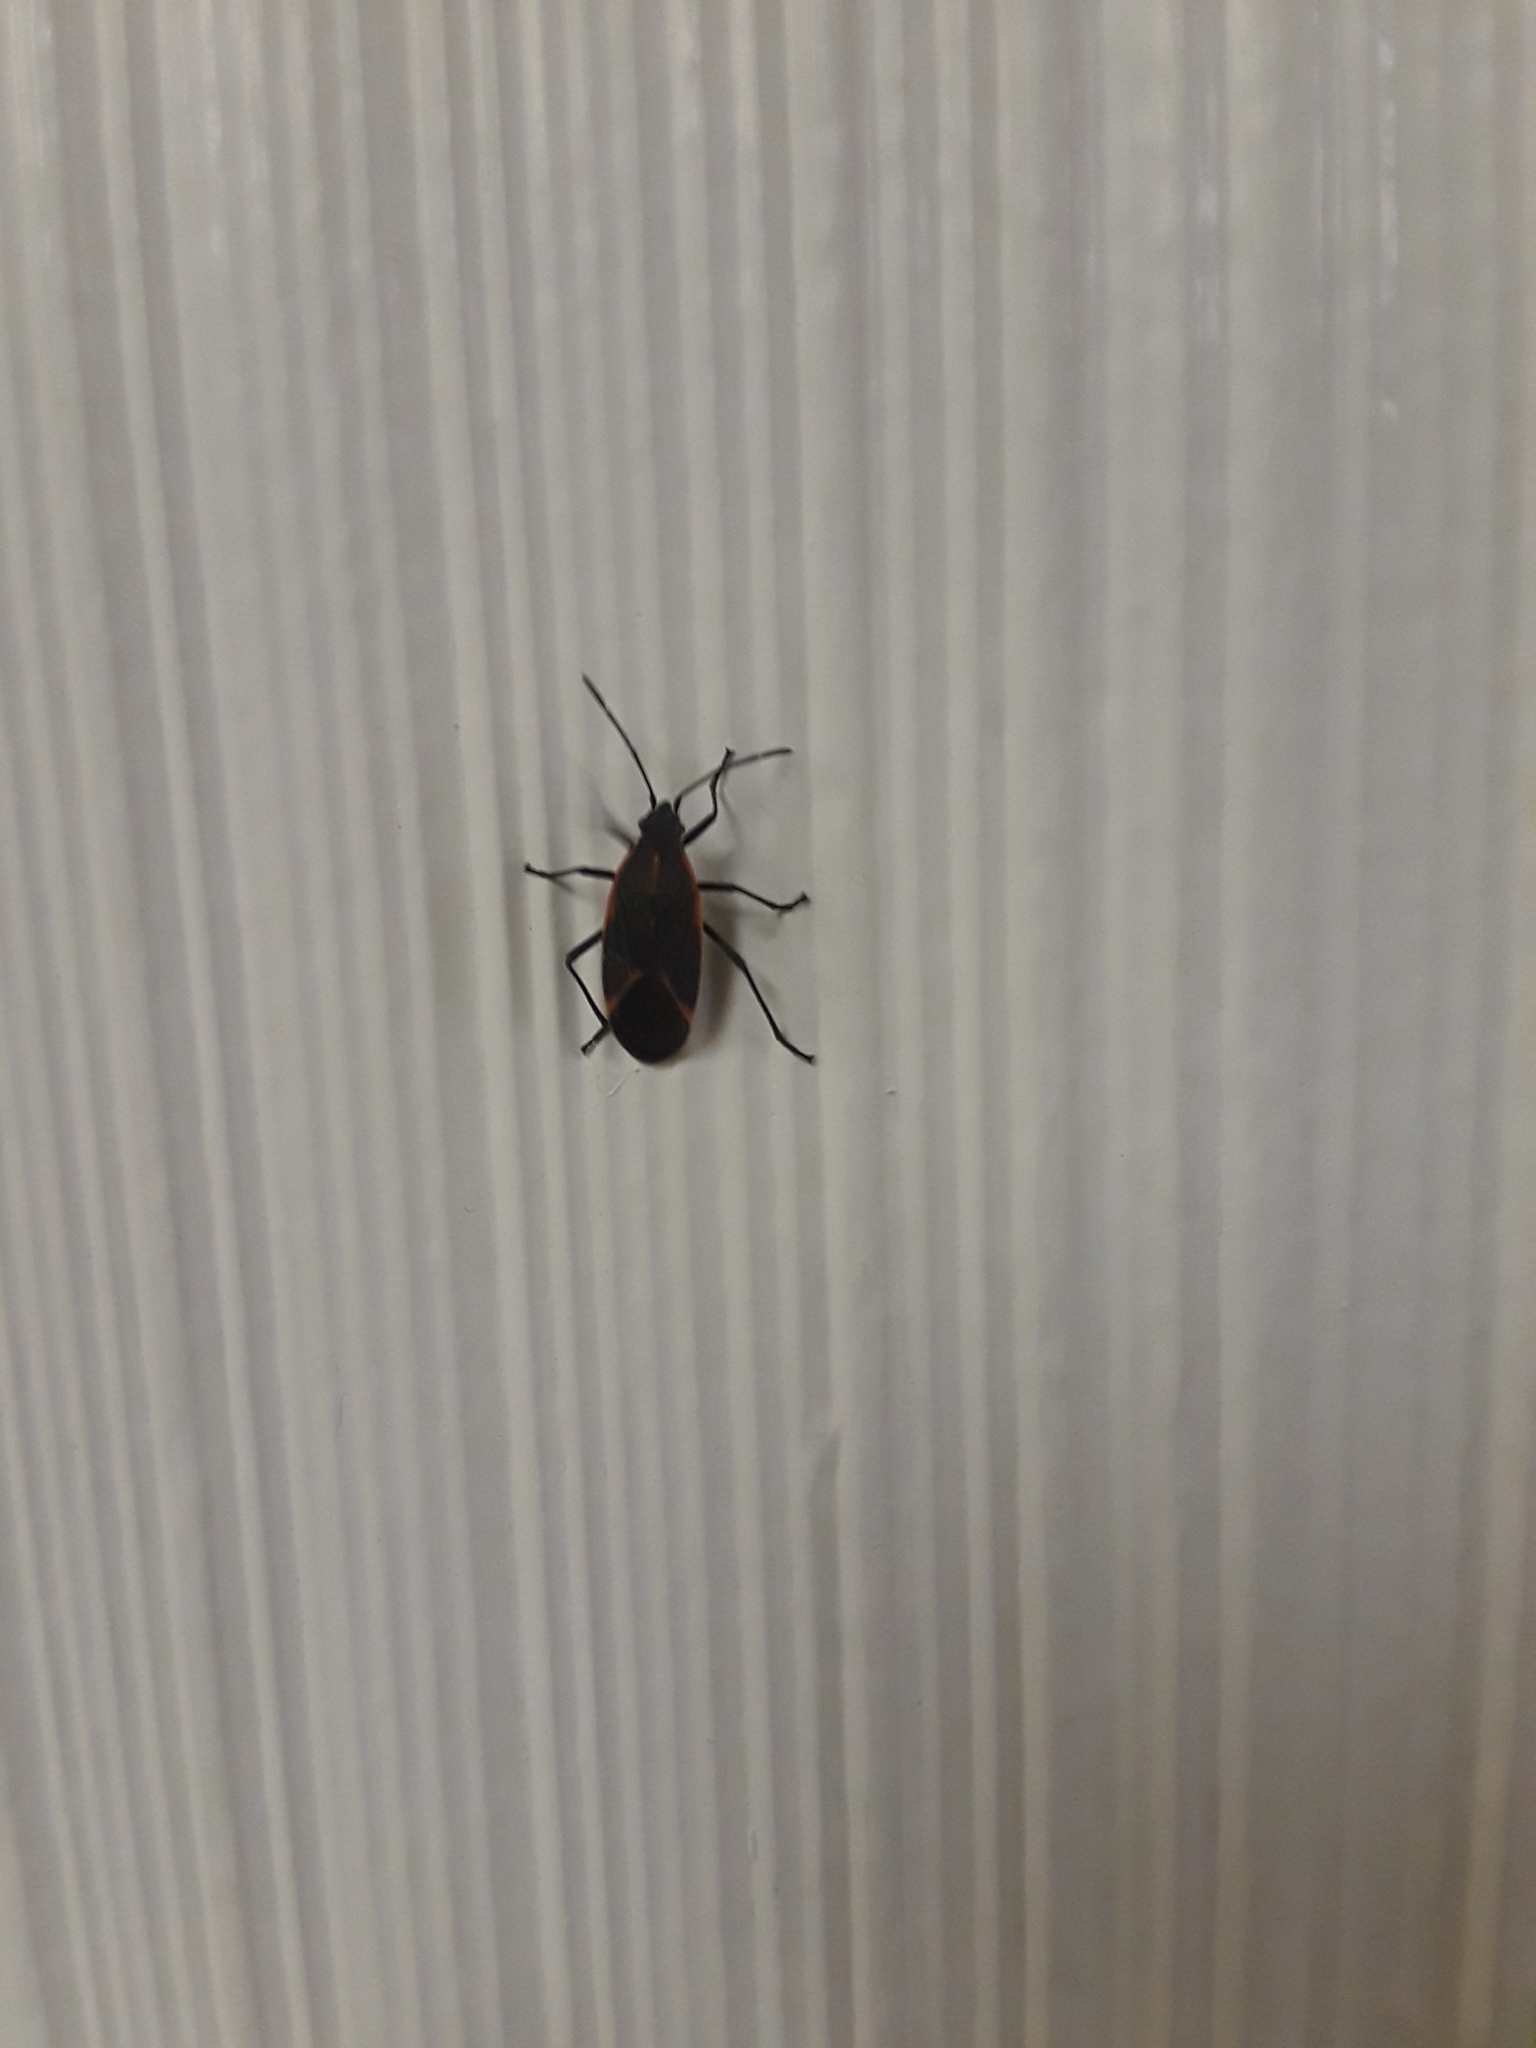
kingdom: Animalia
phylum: Arthropoda
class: Insecta
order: Hemiptera
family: Rhopalidae
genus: Boisea
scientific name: Boisea trivittata
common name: Boxelder bug
